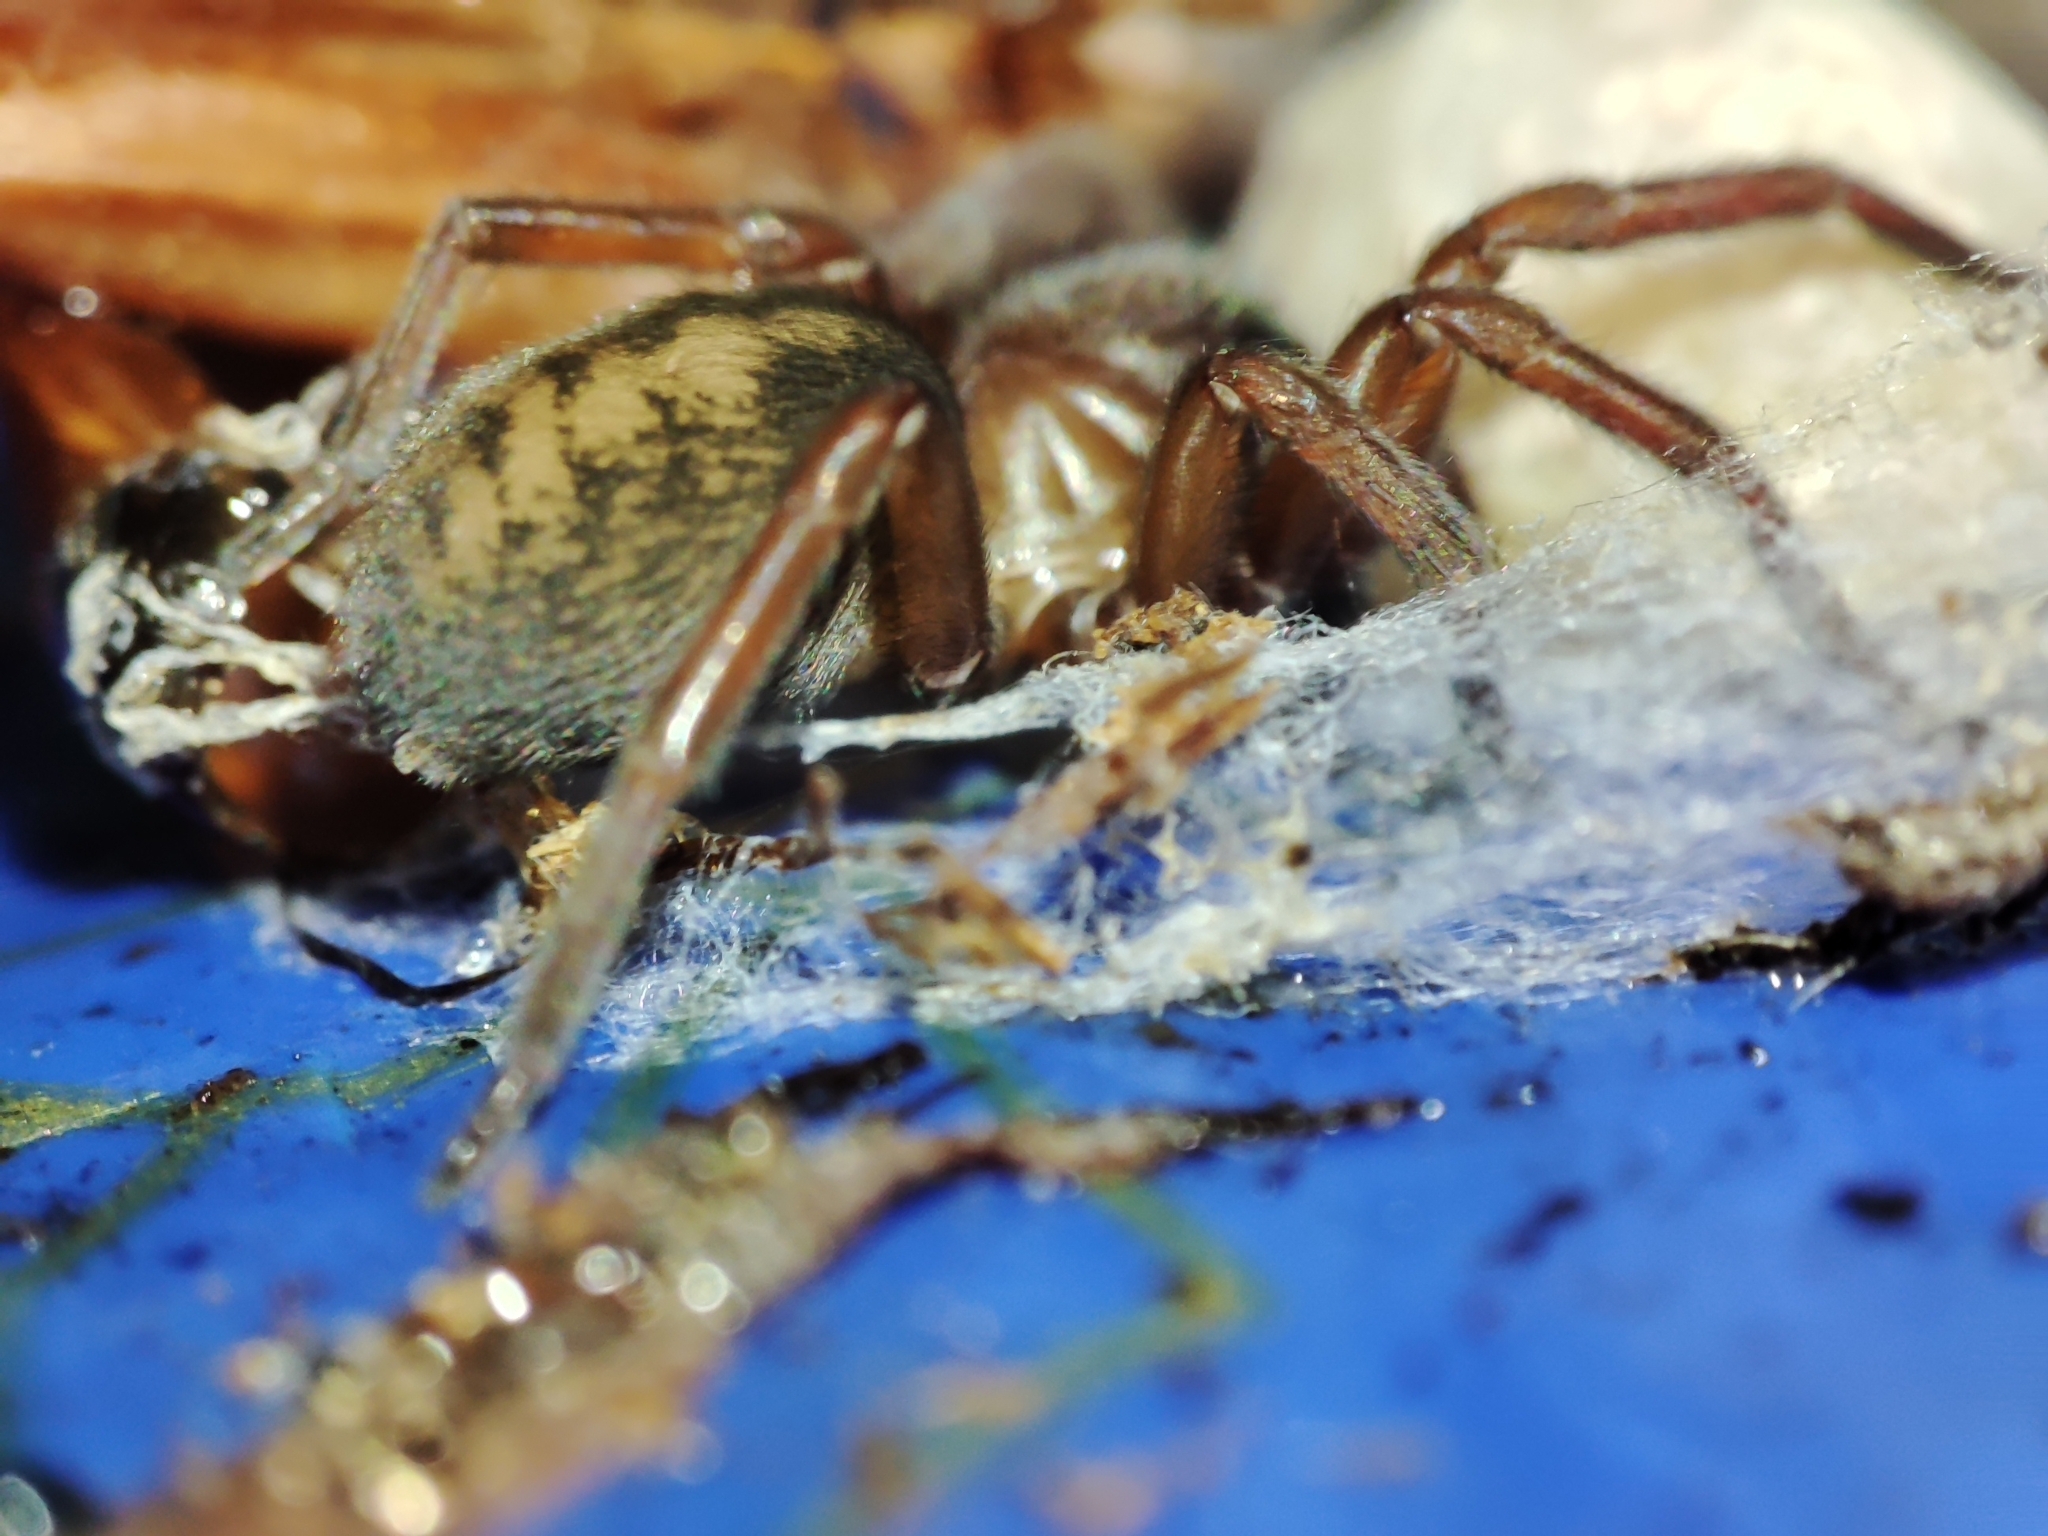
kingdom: Animalia
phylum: Arthropoda
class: Arachnida
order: Araneae
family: Amaurobiidae
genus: Callobius
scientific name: Callobius claustrarius
